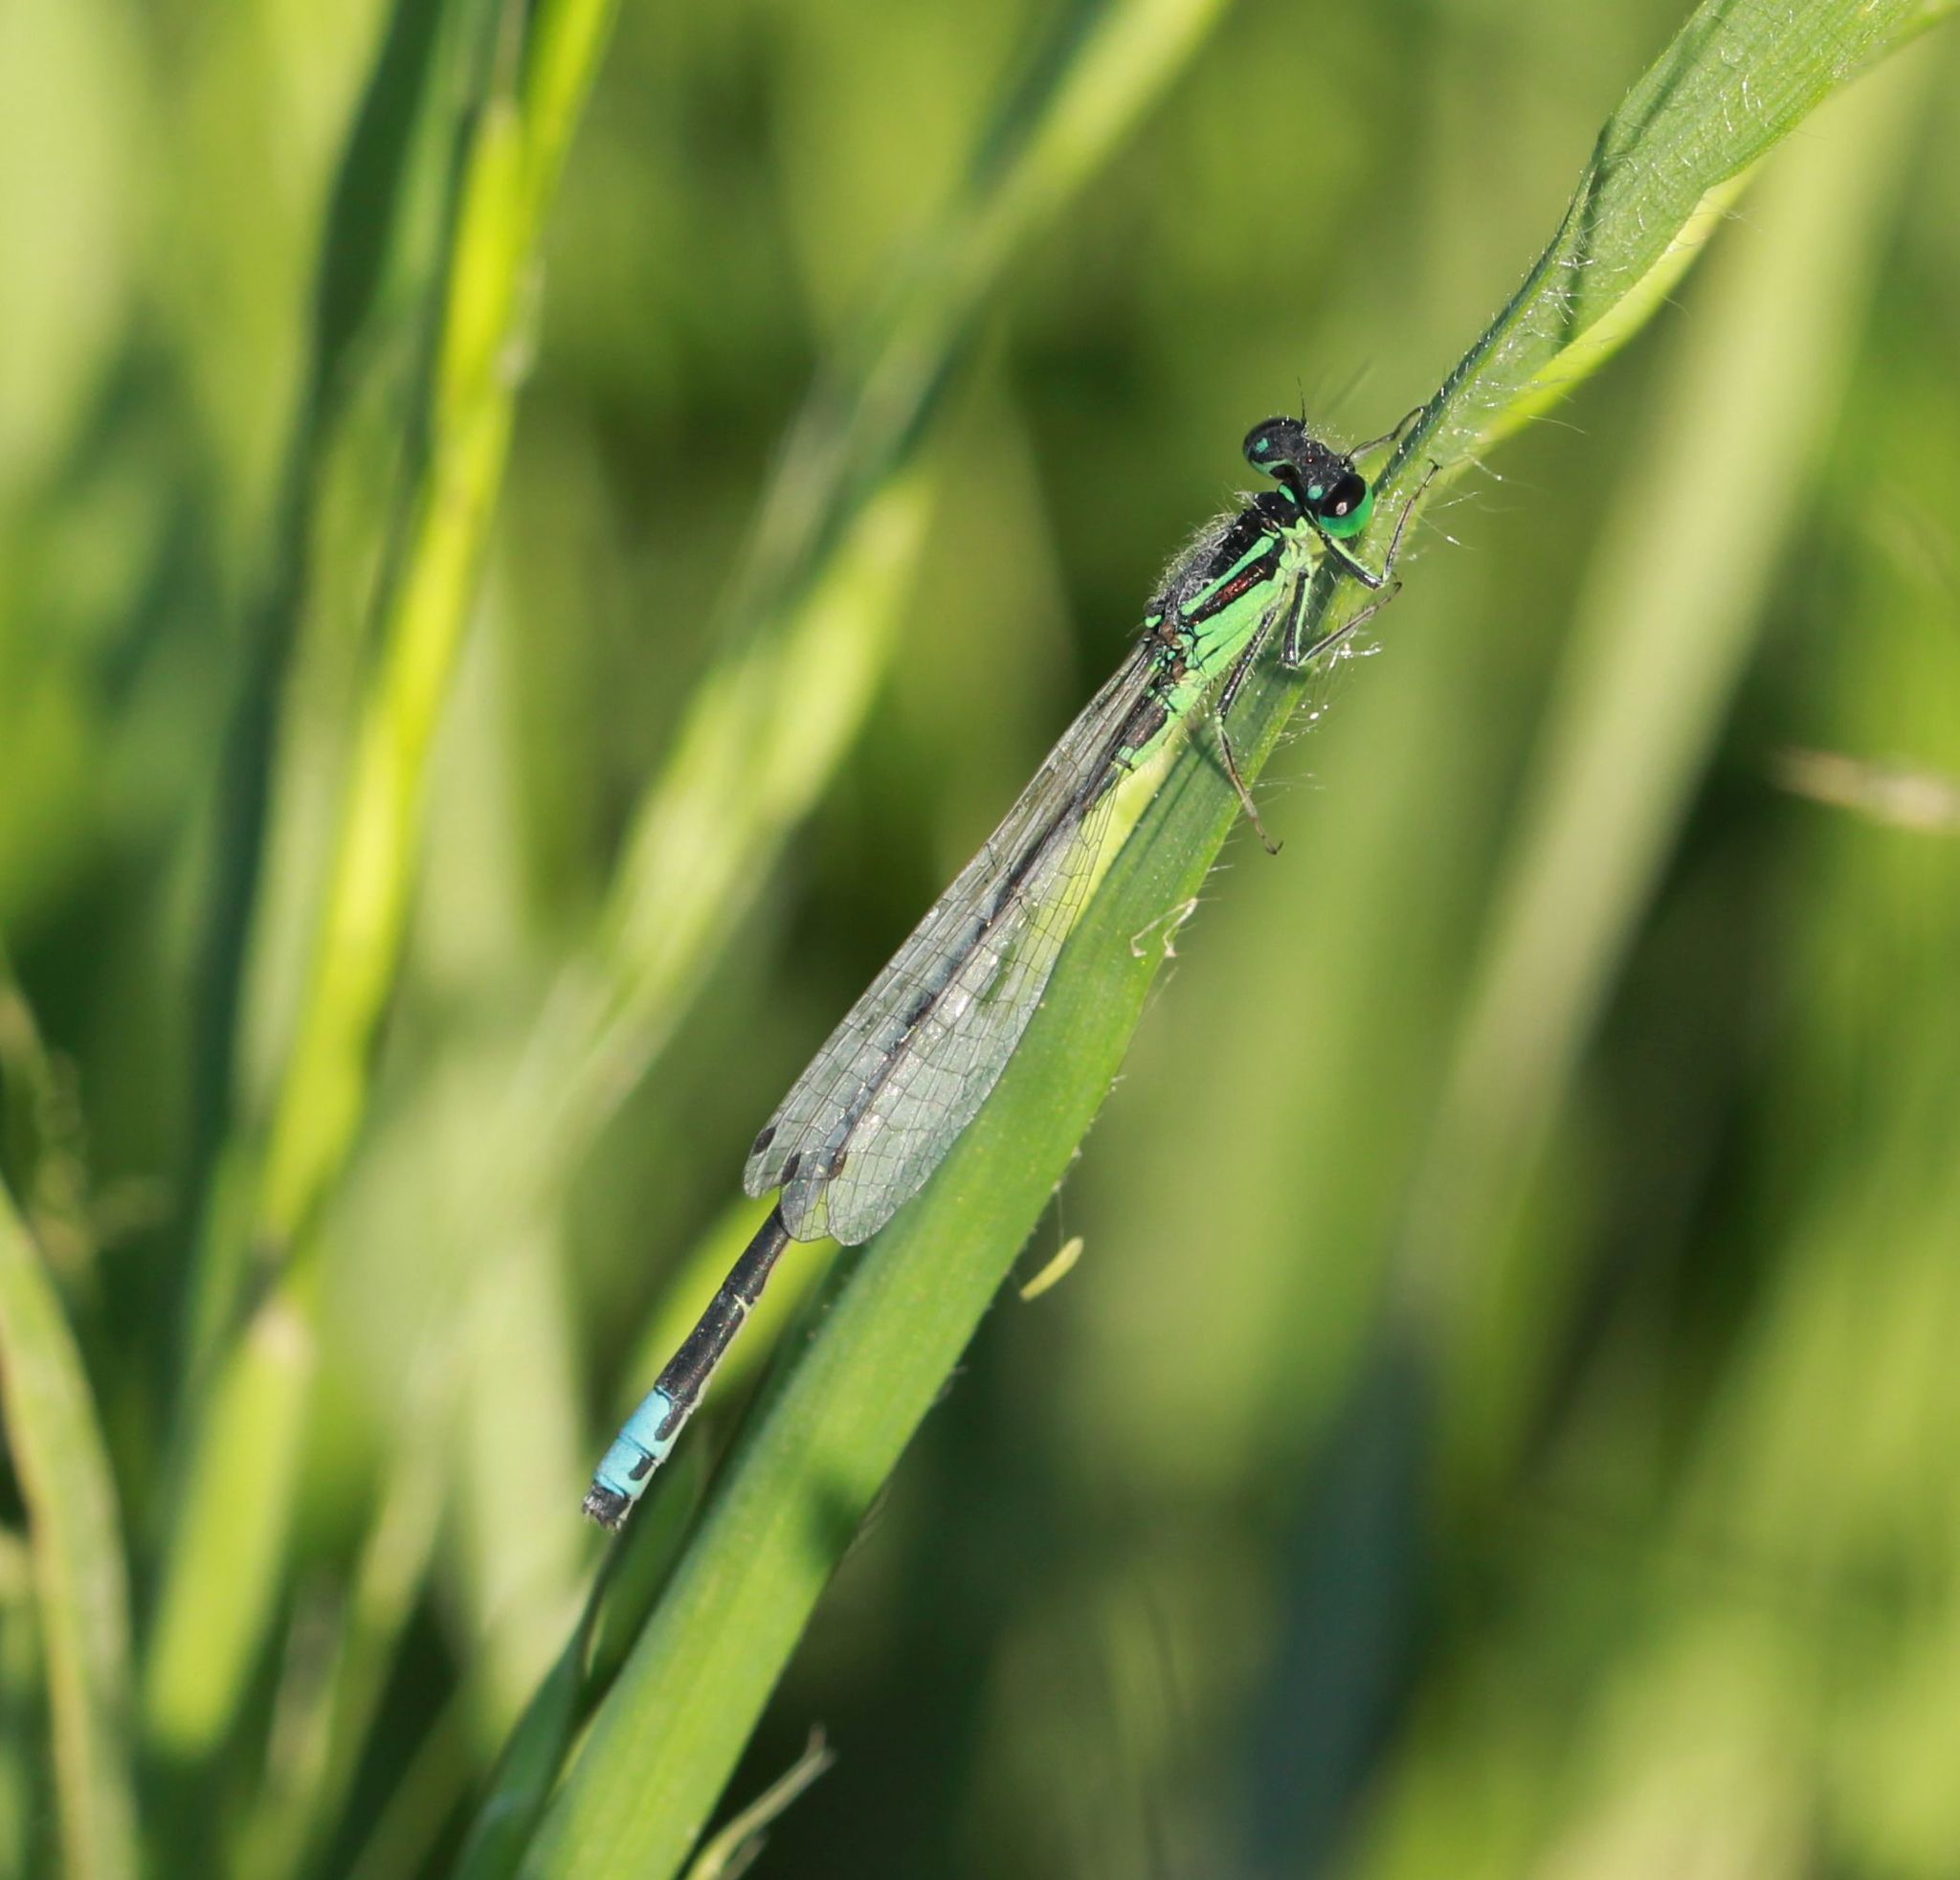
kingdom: Animalia
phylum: Arthropoda
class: Insecta
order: Odonata
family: Coenagrionidae
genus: Ischnura
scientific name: Ischnura verticalis
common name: Eastern forktail
